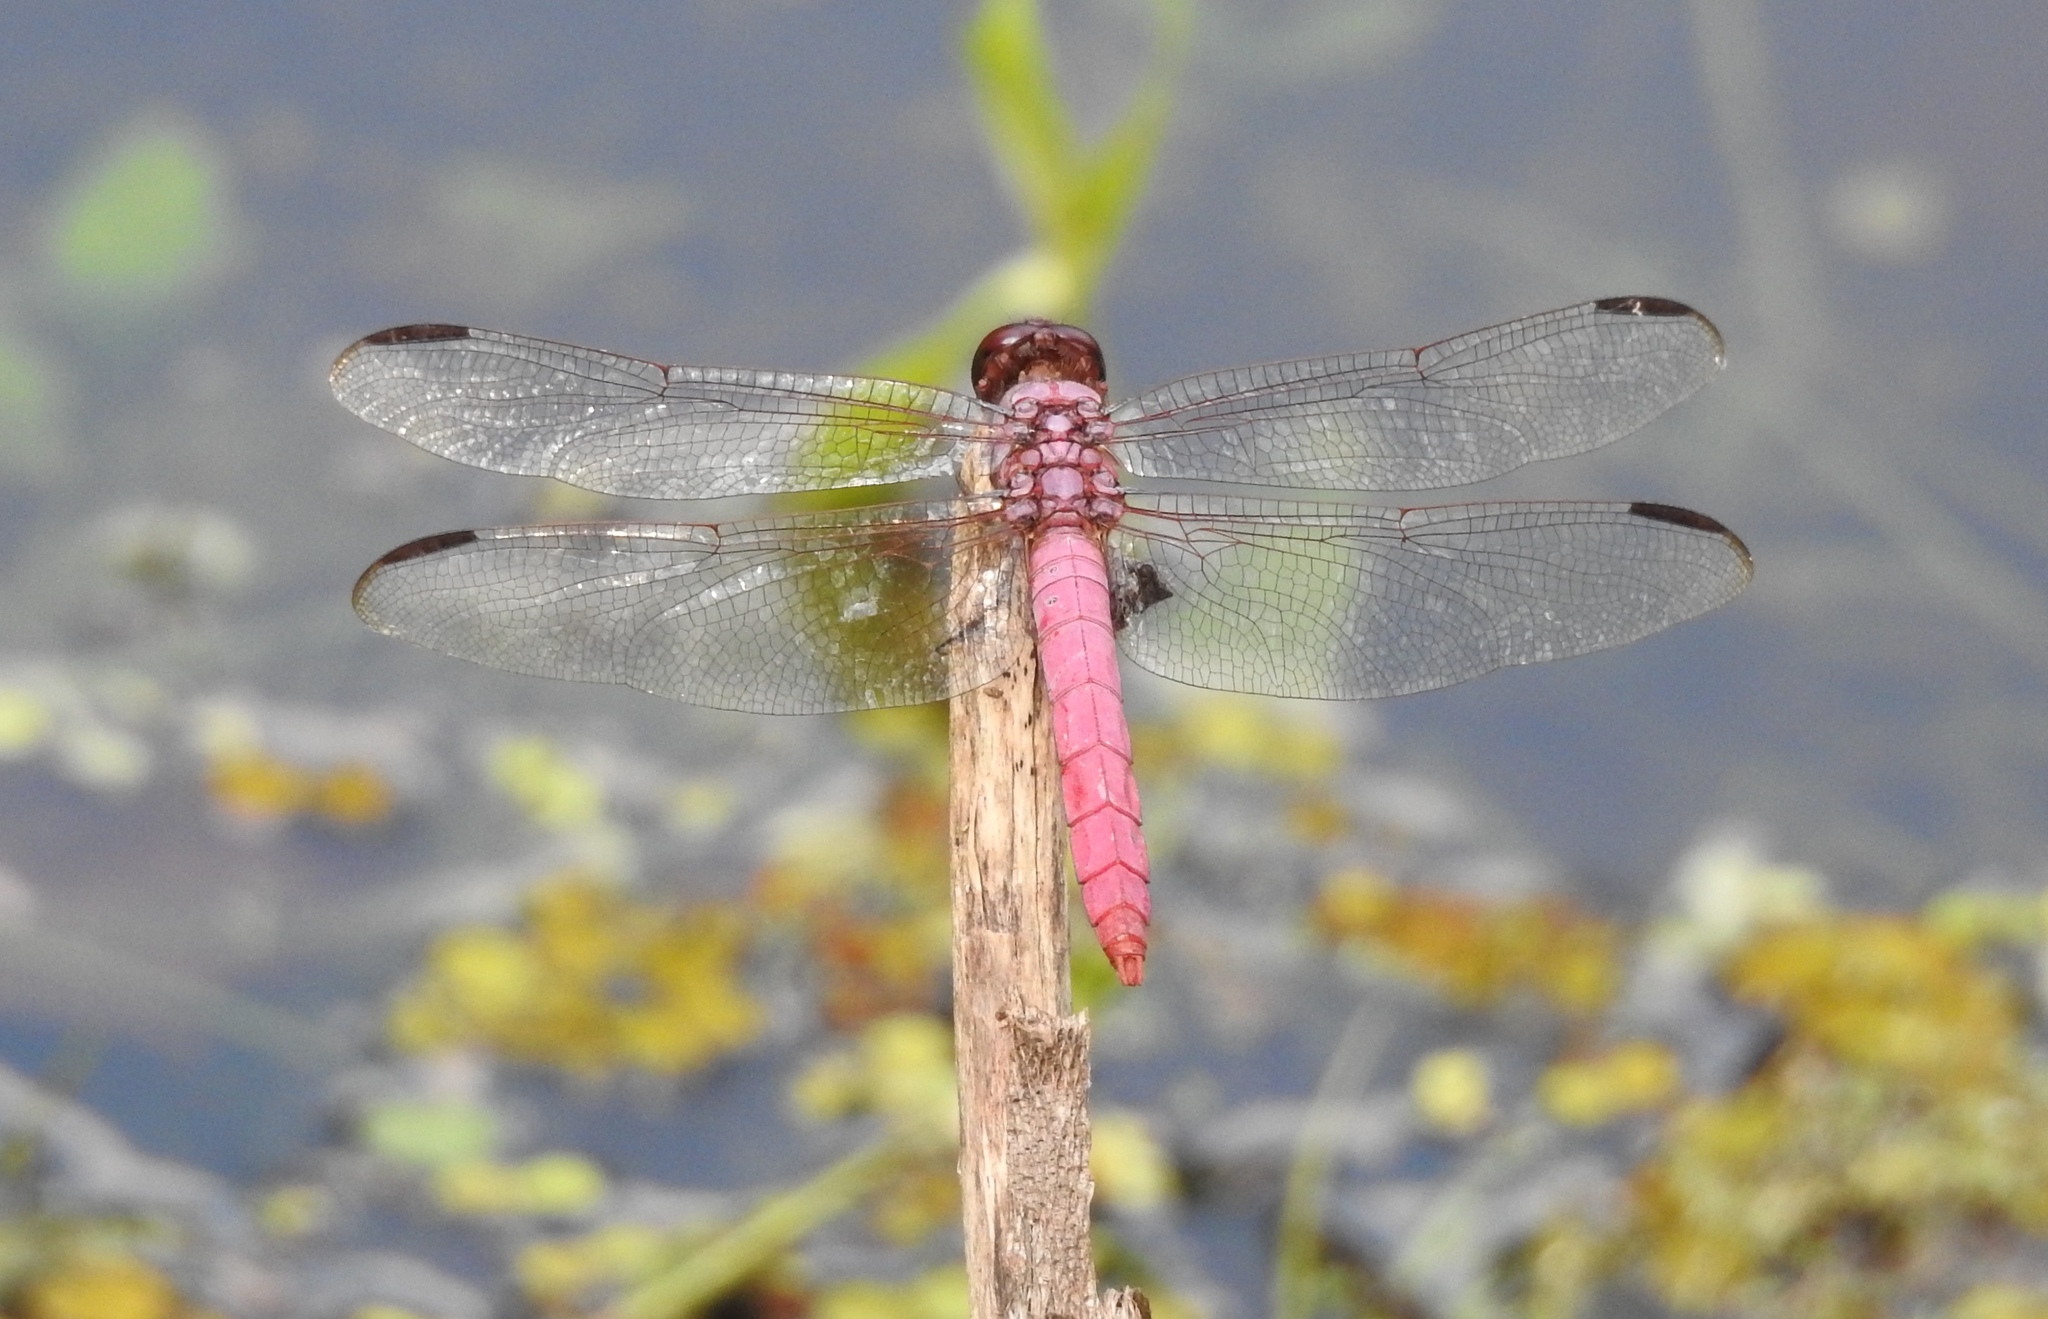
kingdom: Animalia
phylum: Arthropoda
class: Insecta
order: Odonata
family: Libellulidae
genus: Orthemis
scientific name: Orthemis ferruginea
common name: Roseate skimmer
